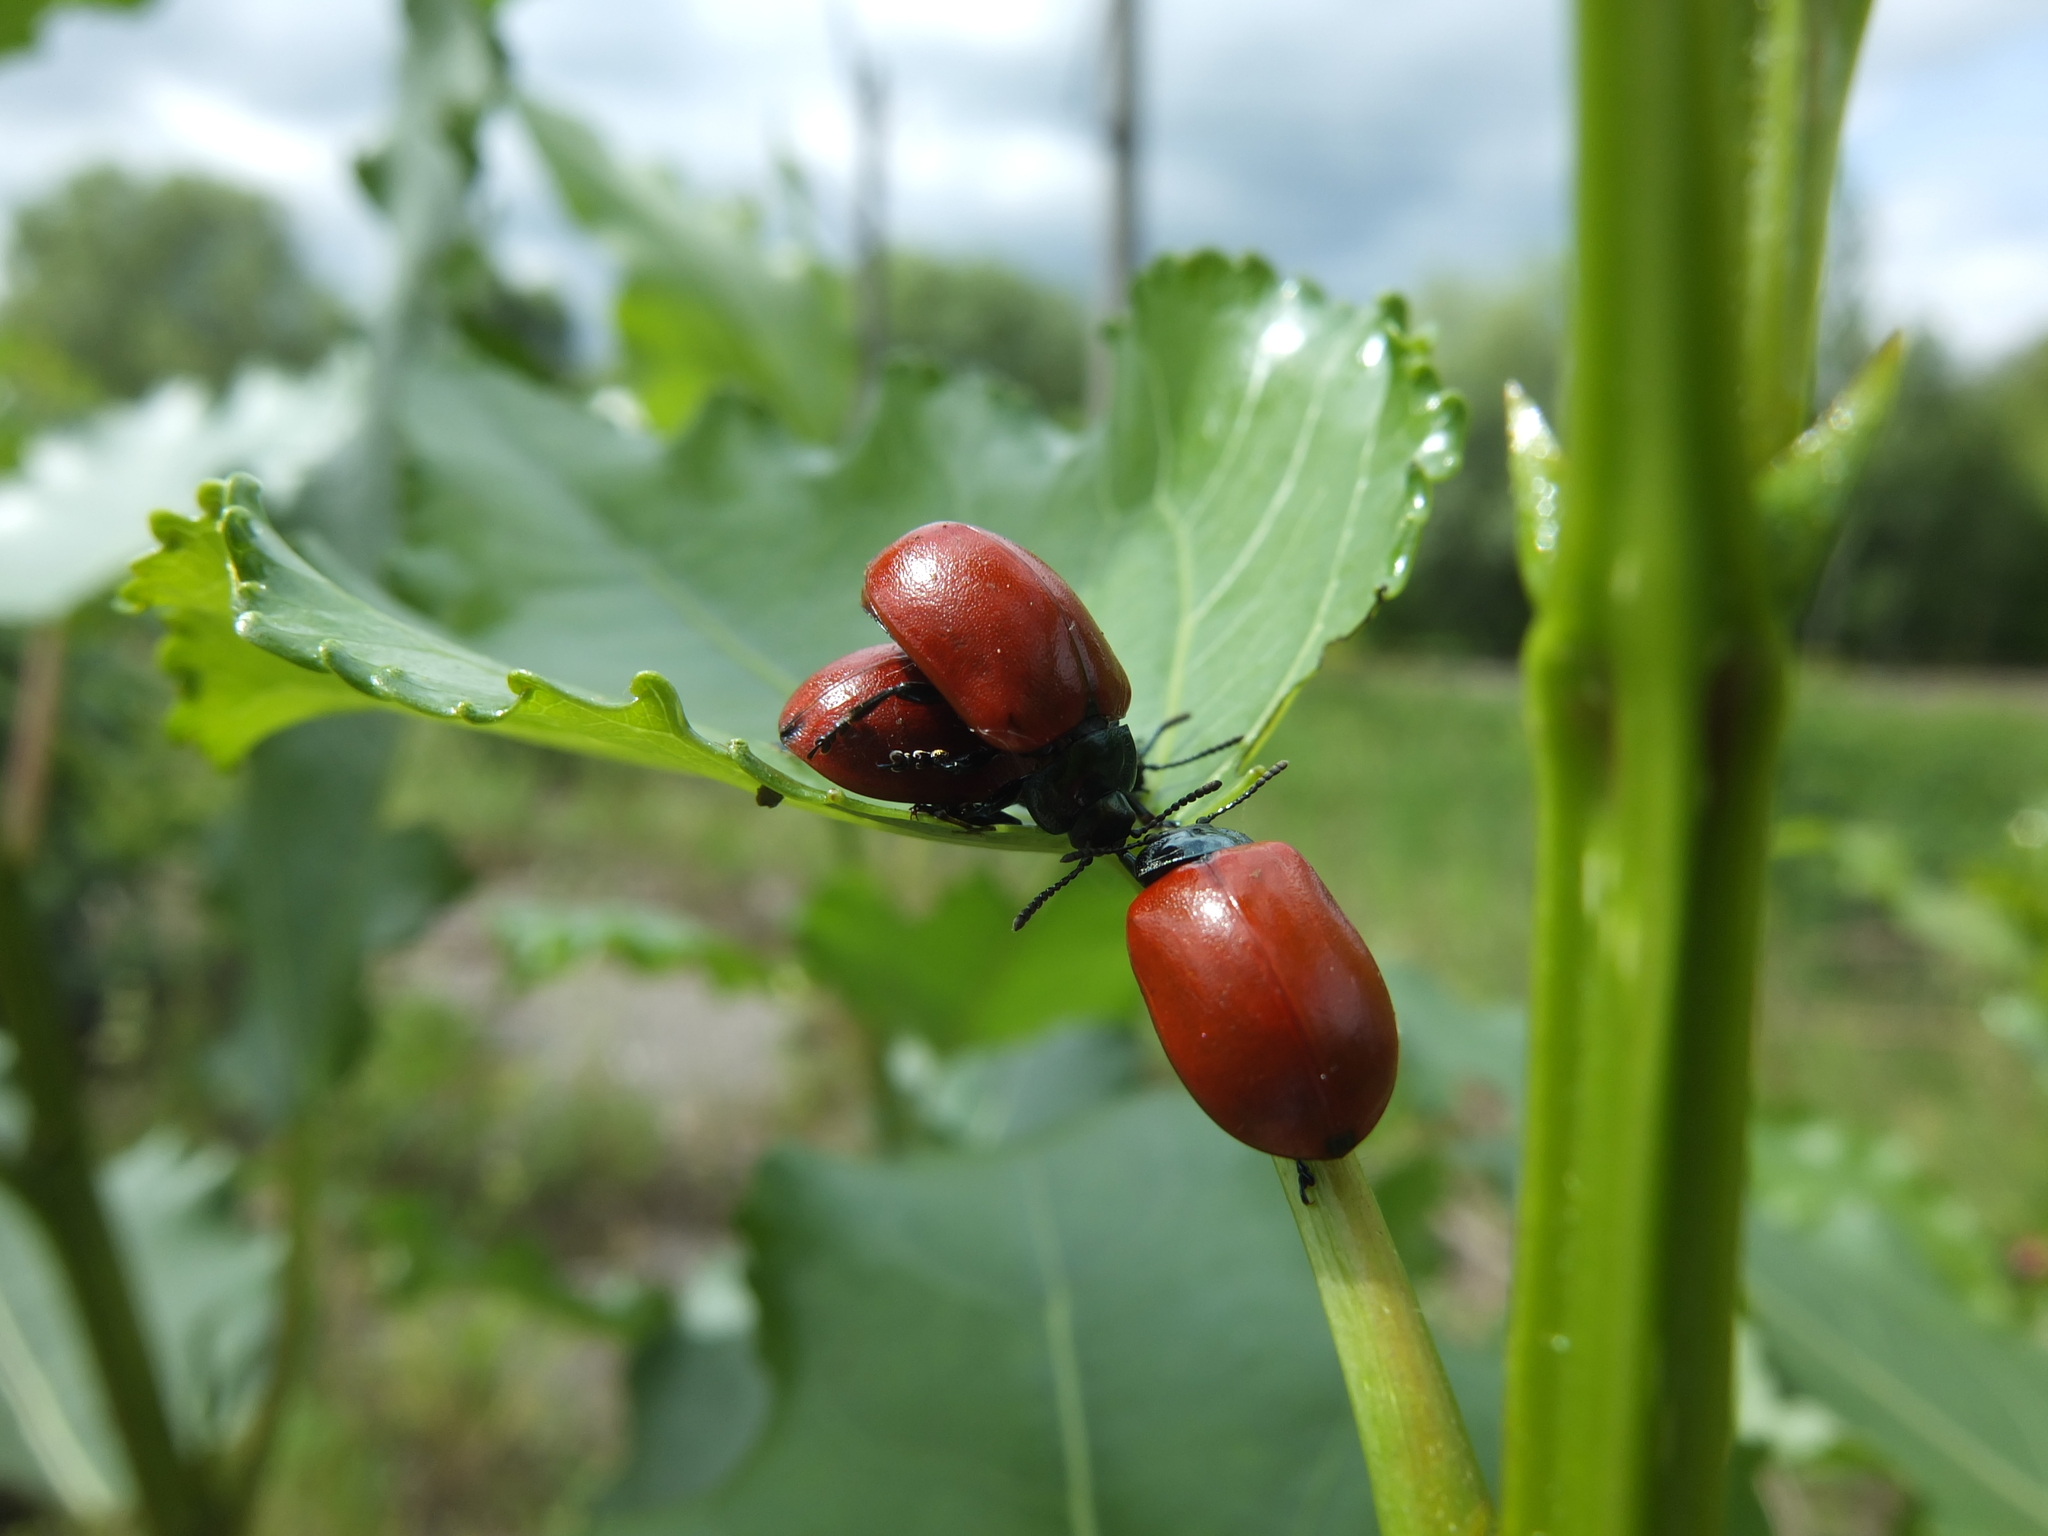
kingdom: Animalia
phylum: Arthropoda
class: Insecta
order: Coleoptera
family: Chrysomelidae
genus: Chrysomela
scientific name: Chrysomela populi
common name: Red poplar leaf beetle
